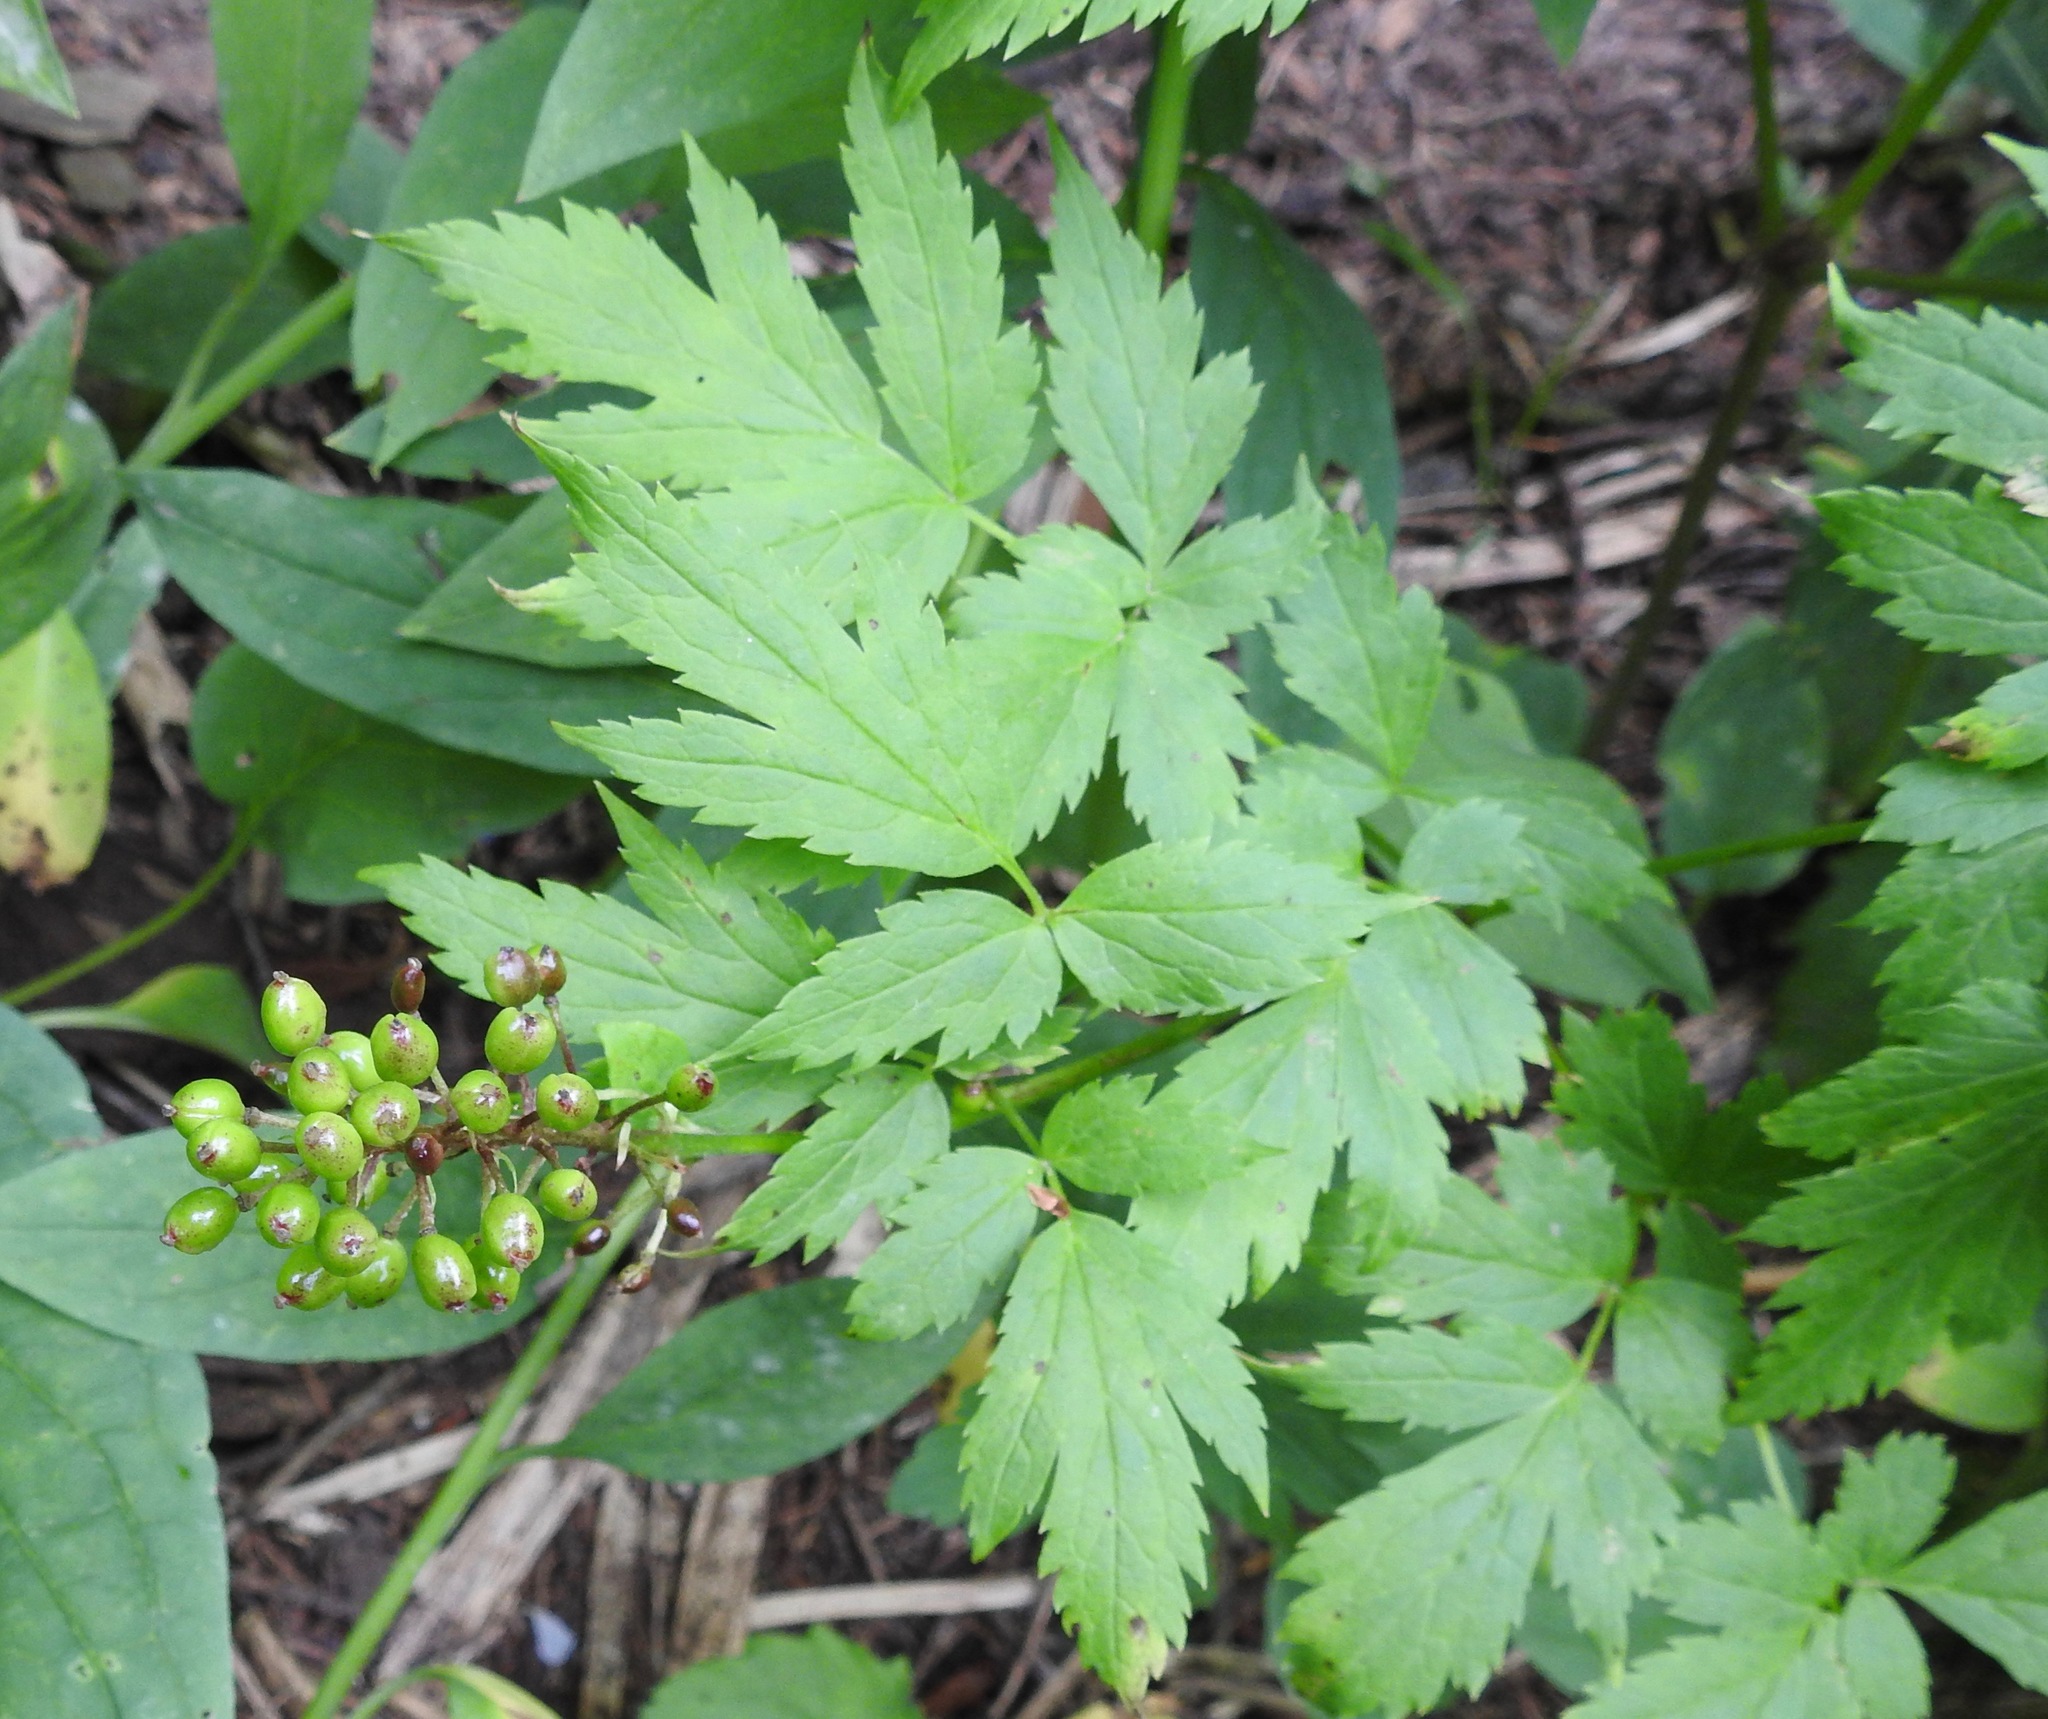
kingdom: Plantae
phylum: Tracheophyta
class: Magnoliopsida
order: Ranunculales
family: Ranunculaceae
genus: Actaea
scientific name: Actaea rubra
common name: Red baneberry
